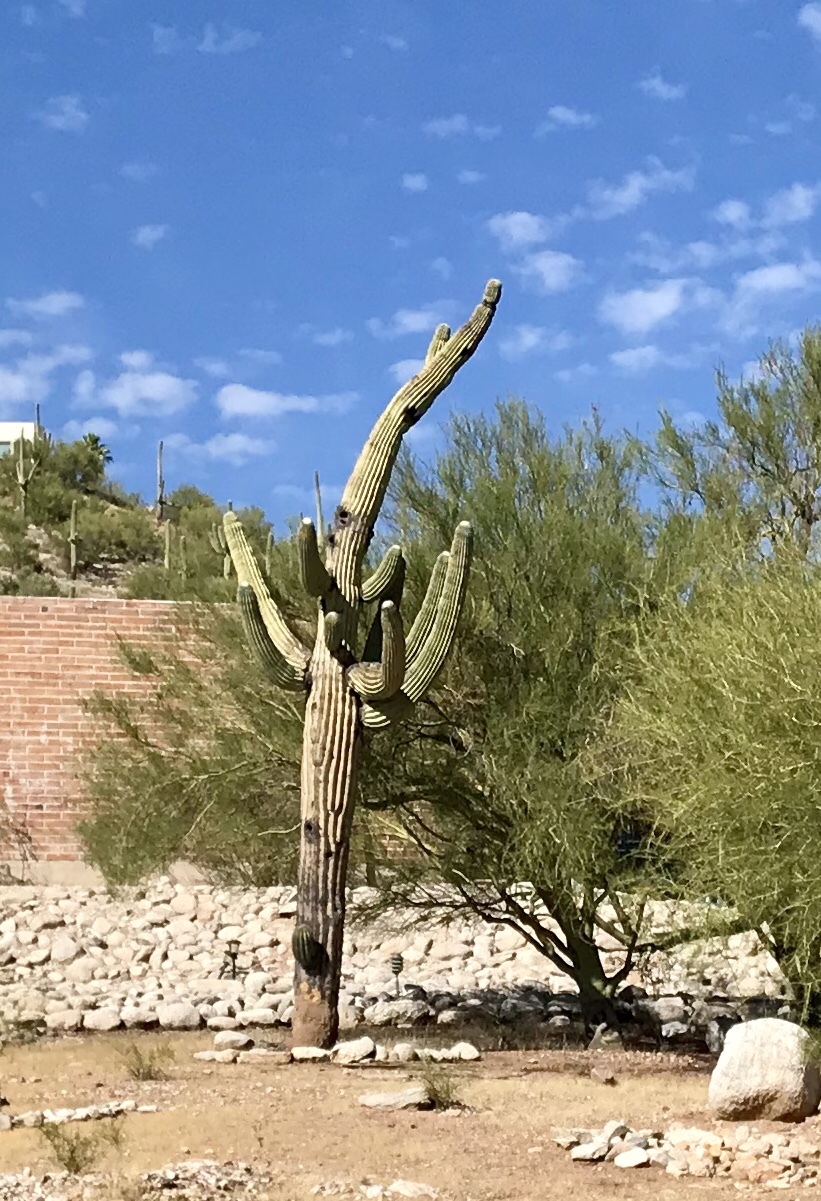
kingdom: Plantae
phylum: Tracheophyta
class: Magnoliopsida
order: Caryophyllales
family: Cactaceae
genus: Carnegiea
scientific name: Carnegiea gigantea
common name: Saguaro
